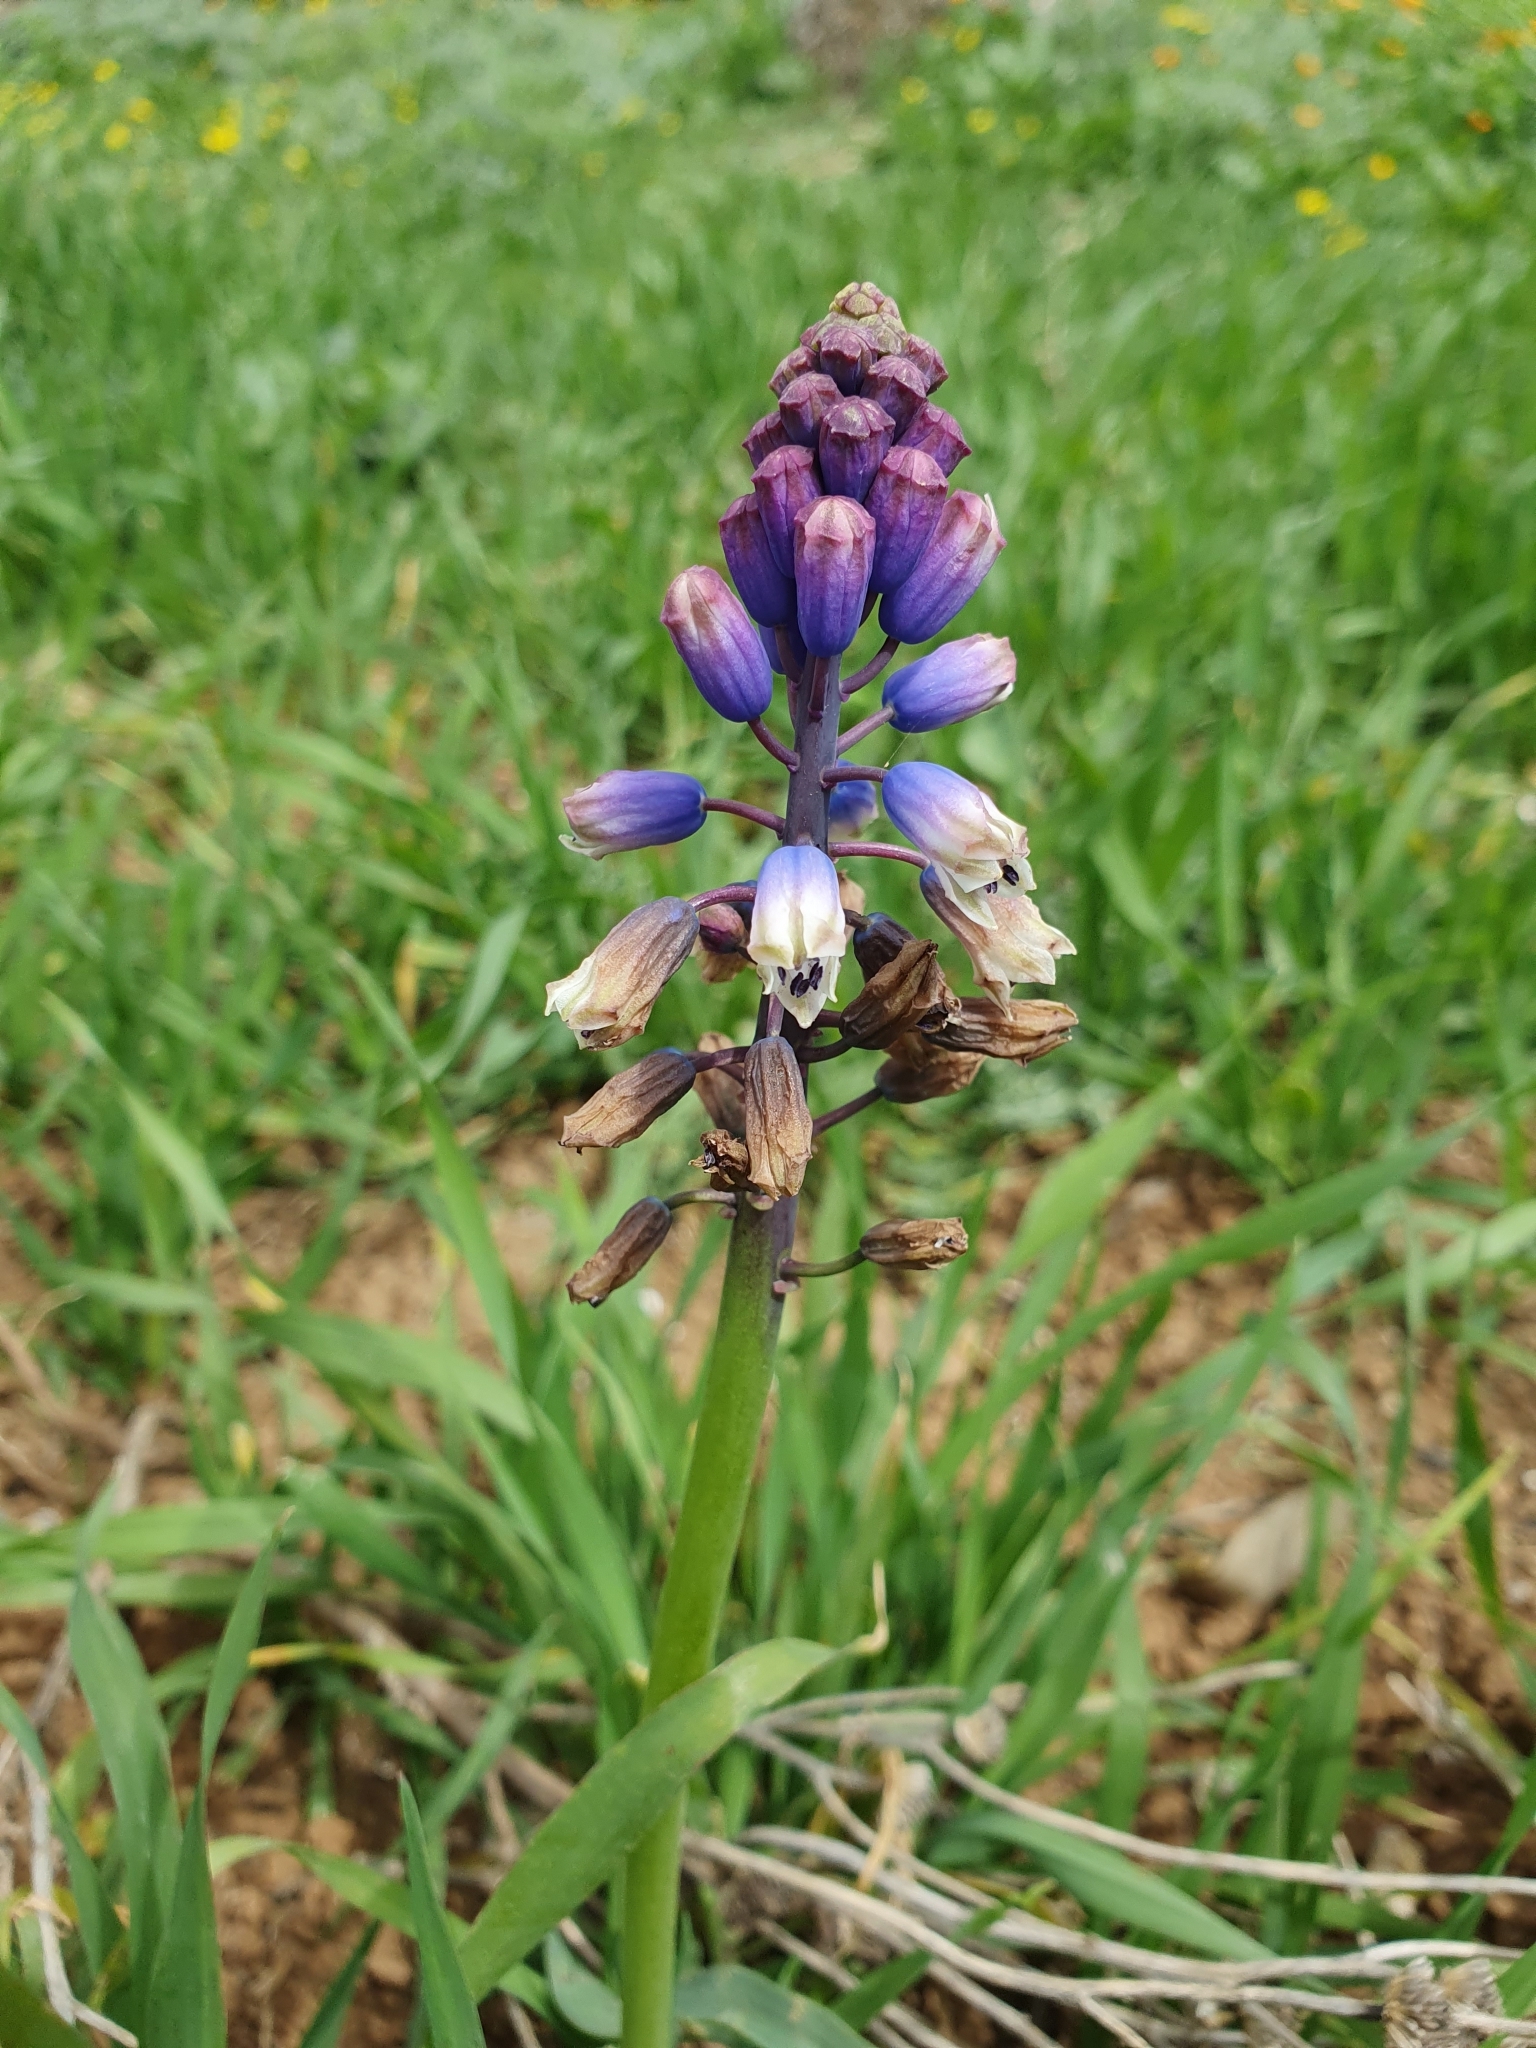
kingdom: Plantae
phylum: Tracheophyta
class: Liliopsida
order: Asparagales
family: Asparagaceae
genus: Bellevalia
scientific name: Bellevalia mauritanica
